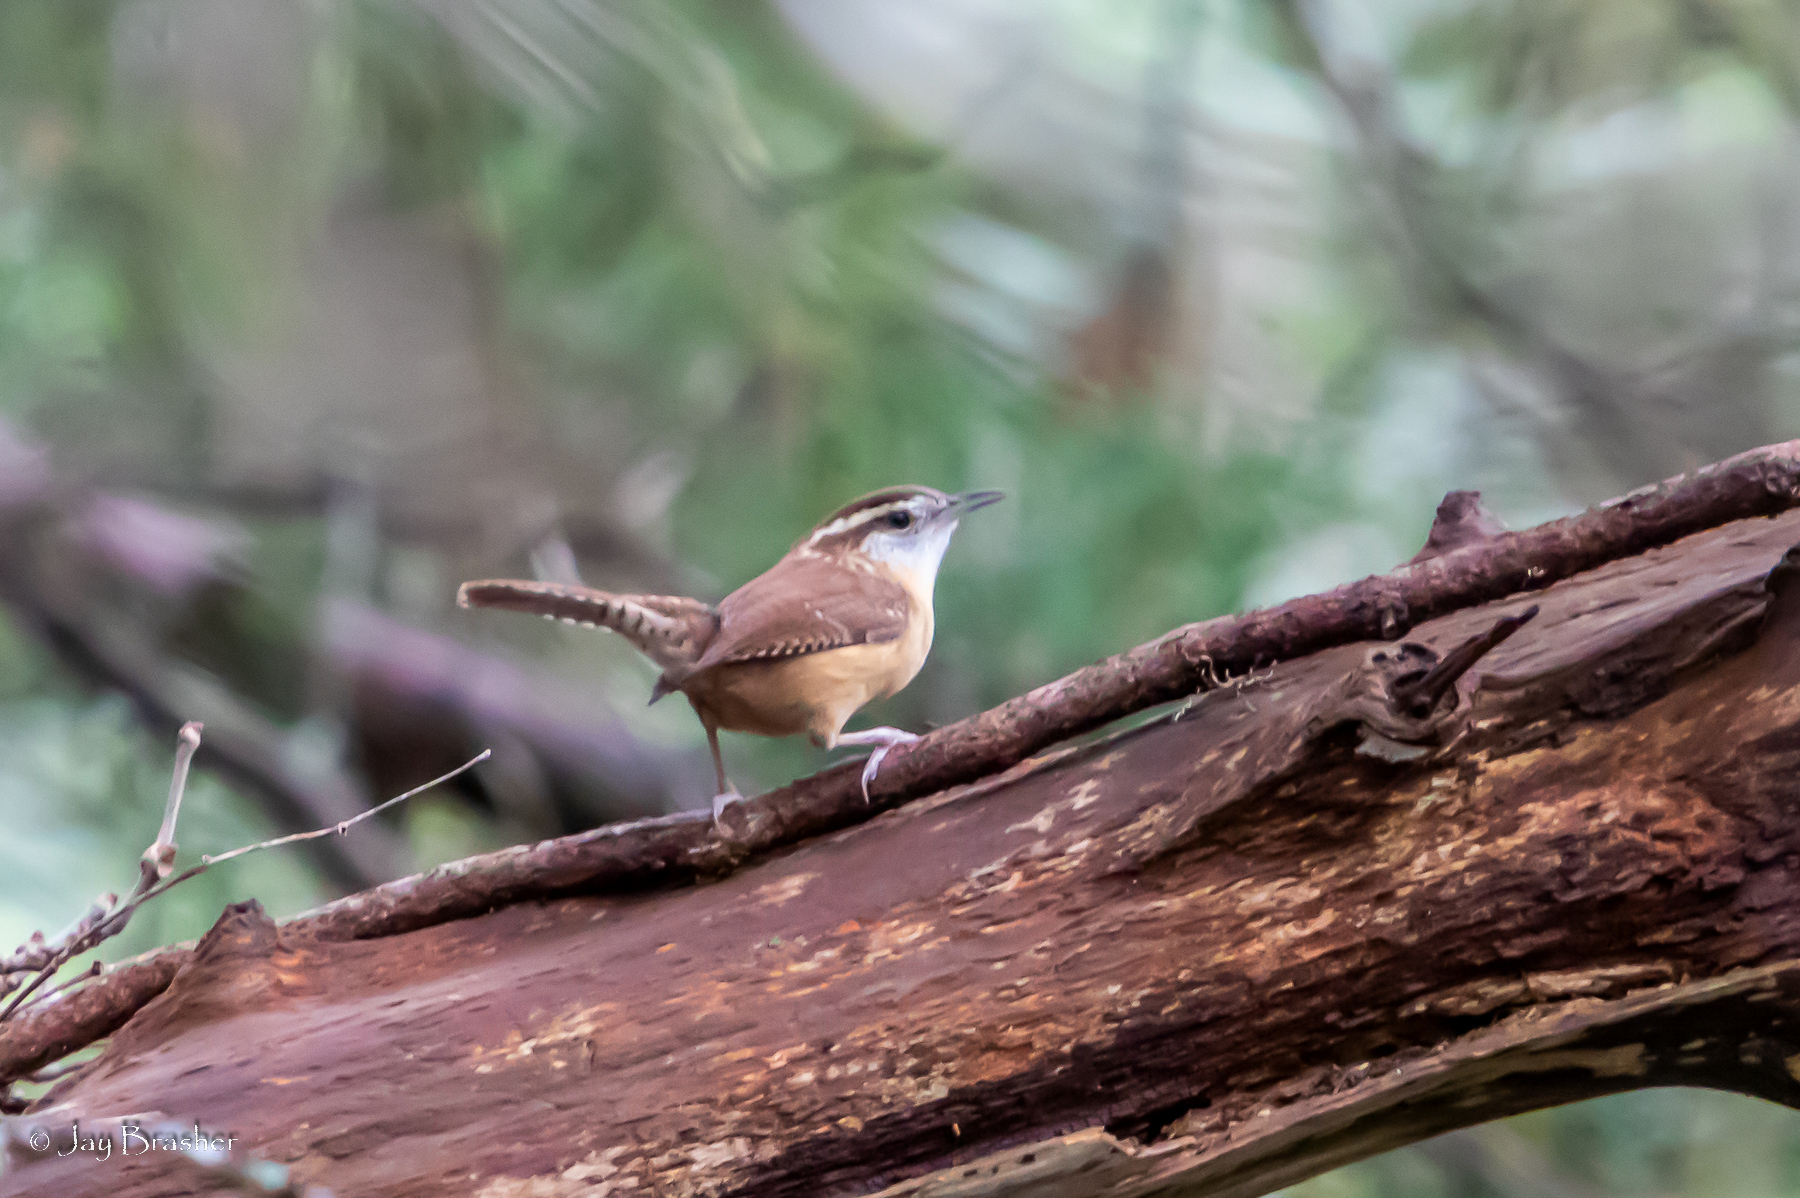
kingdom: Animalia
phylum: Chordata
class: Aves
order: Passeriformes
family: Troglodytidae
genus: Thryothorus
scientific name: Thryothorus ludovicianus
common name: Carolina wren
